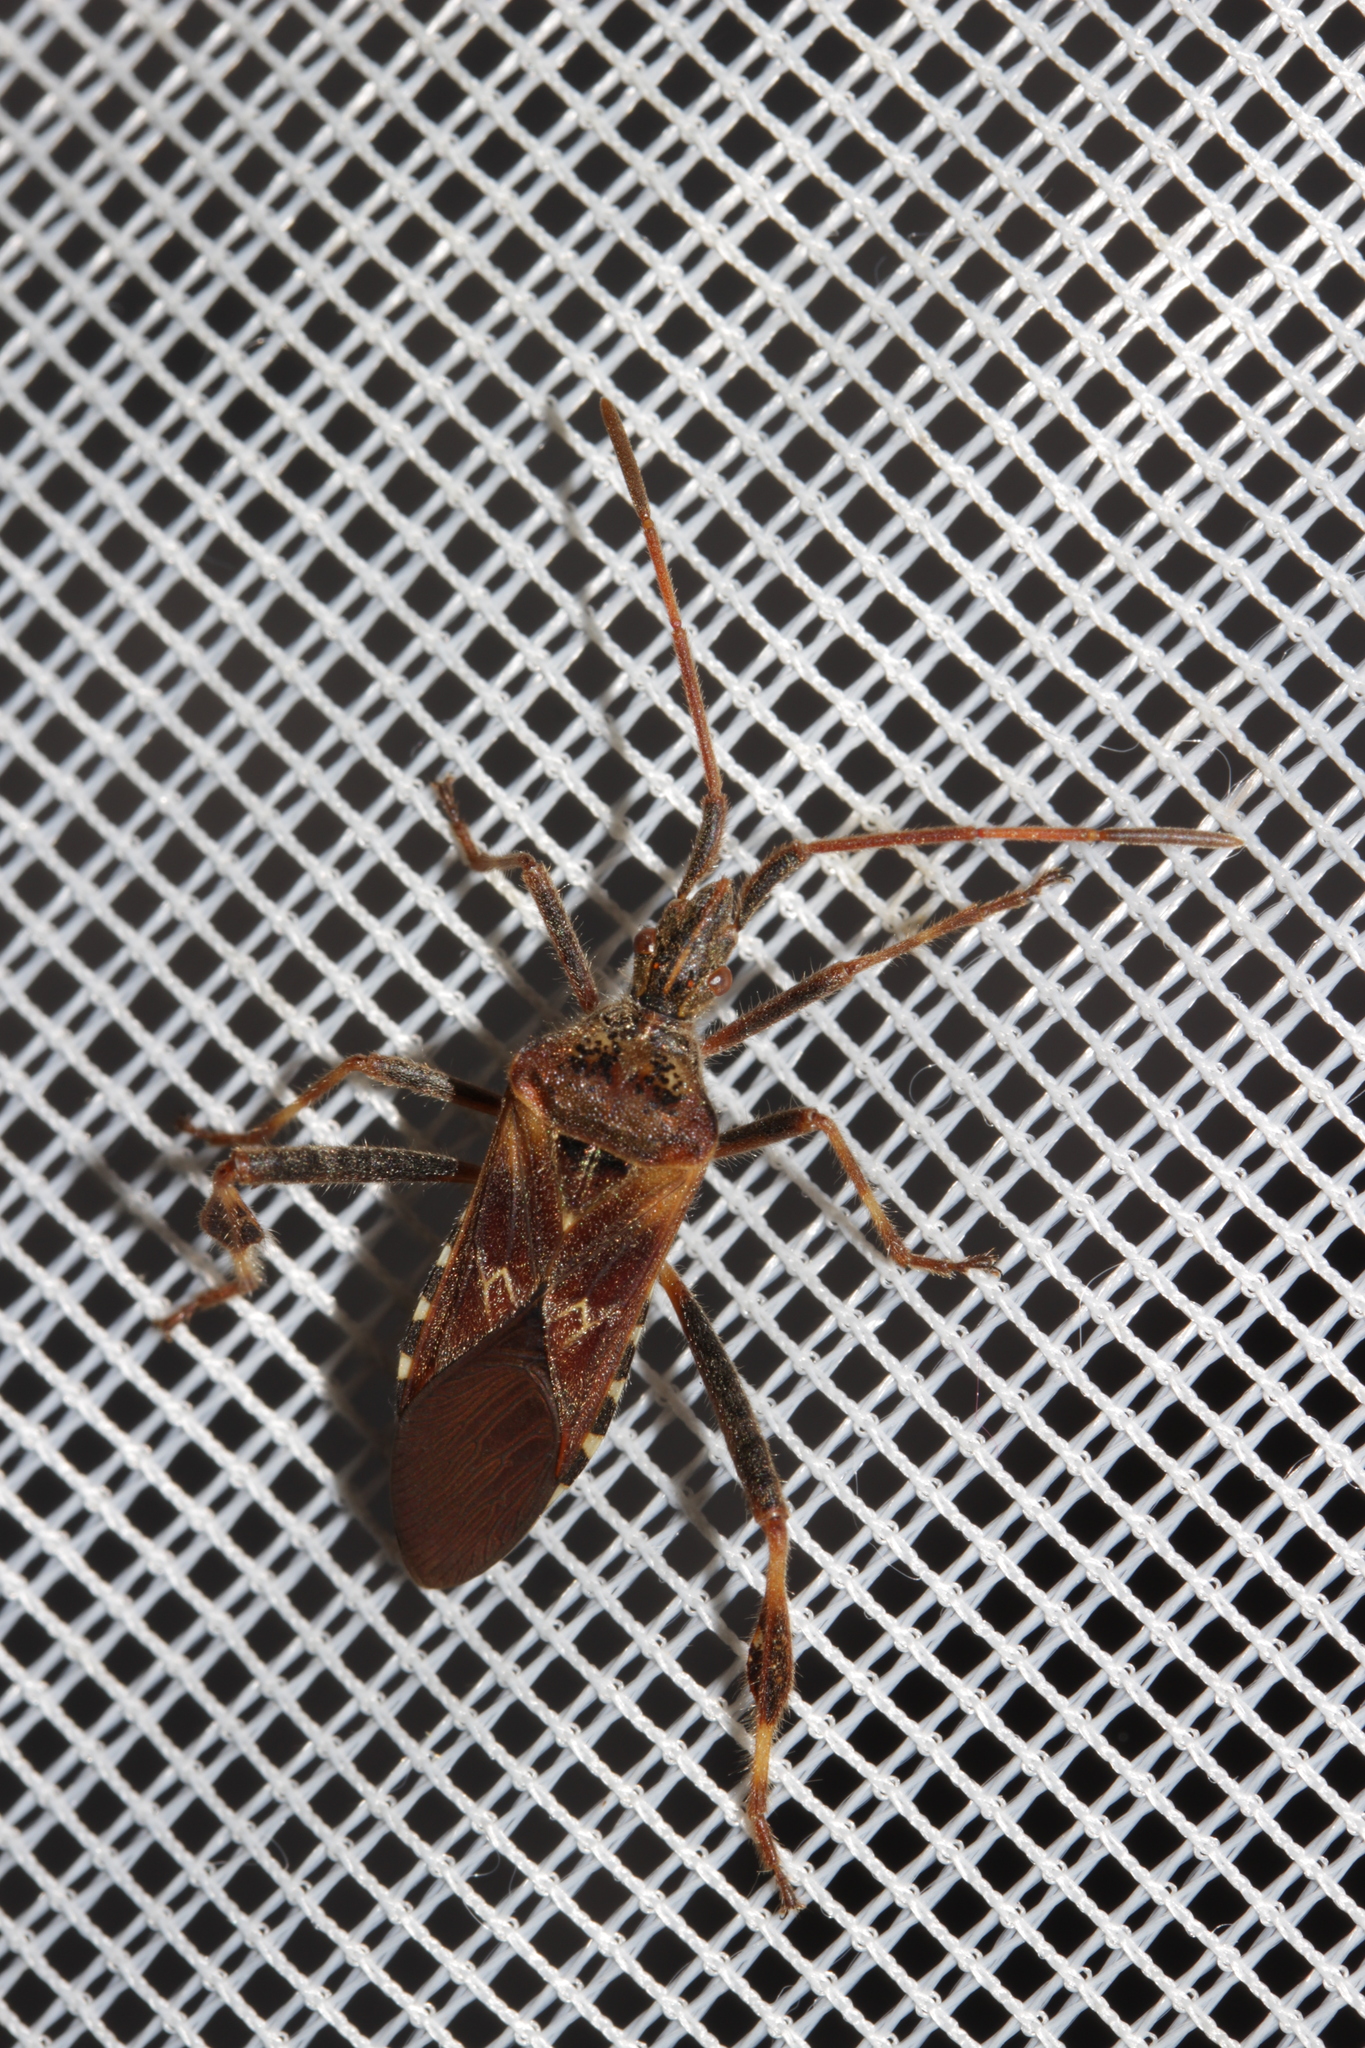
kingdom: Animalia
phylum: Arthropoda
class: Insecta
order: Hemiptera
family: Coreidae
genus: Leptoglossus
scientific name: Leptoglossus occidentalis
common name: Western conifer-seed bug
